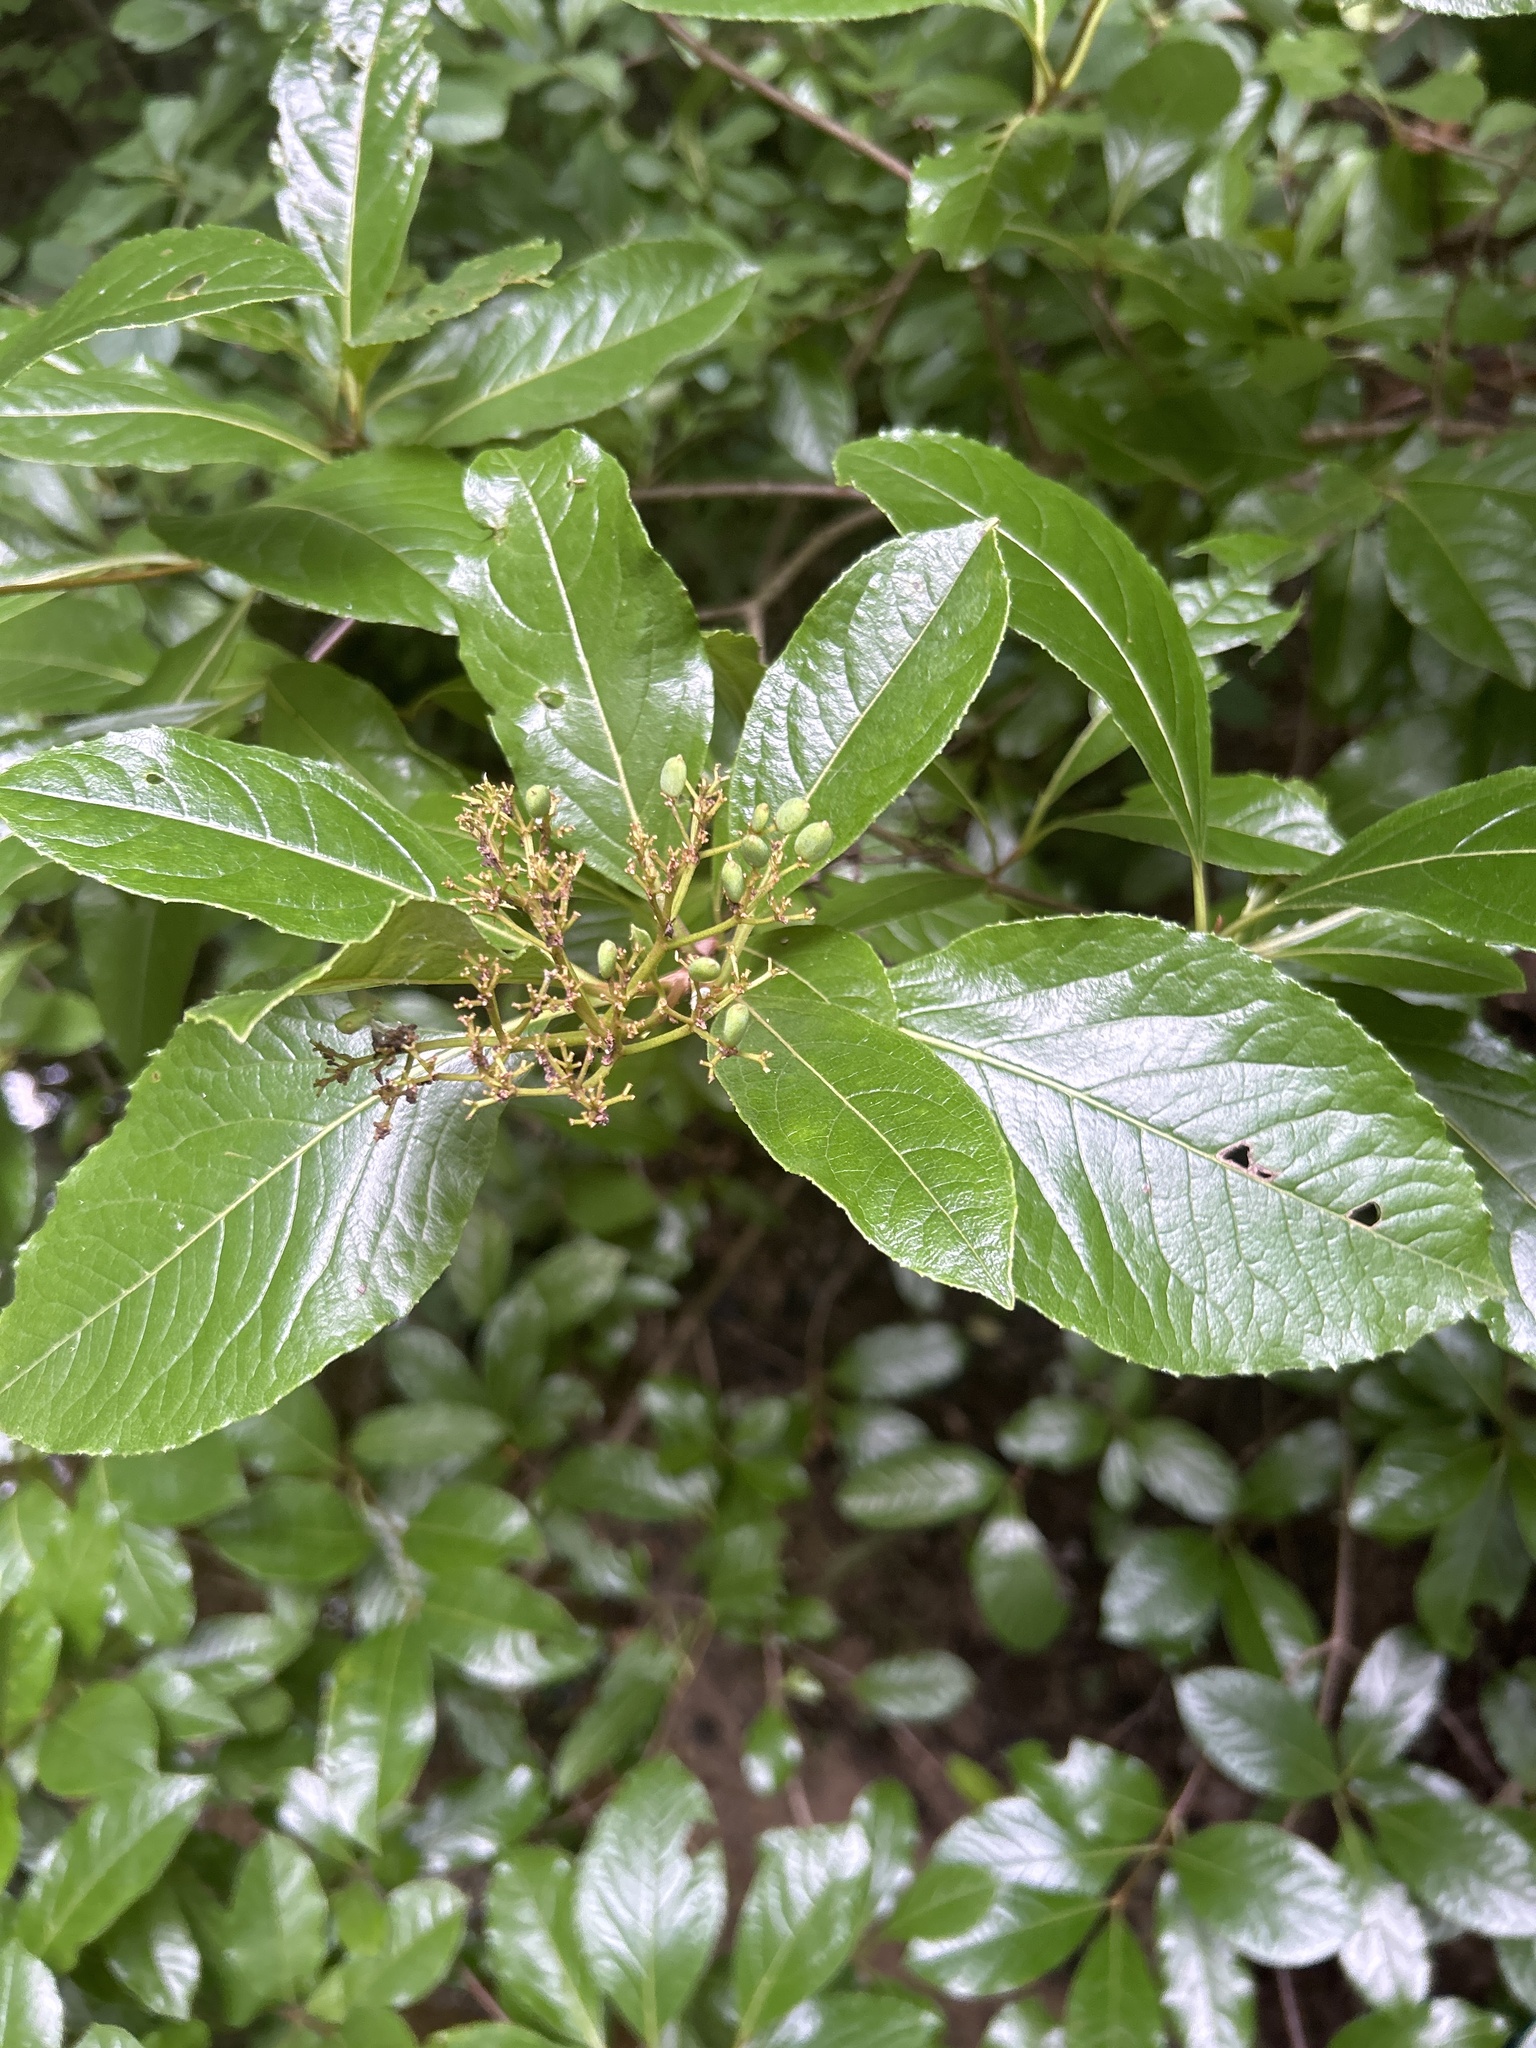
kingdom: Plantae
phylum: Tracheophyta
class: Magnoliopsida
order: Dipsacales
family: Viburnaceae
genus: Viburnum
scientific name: Viburnum nudum
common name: Possum haw
